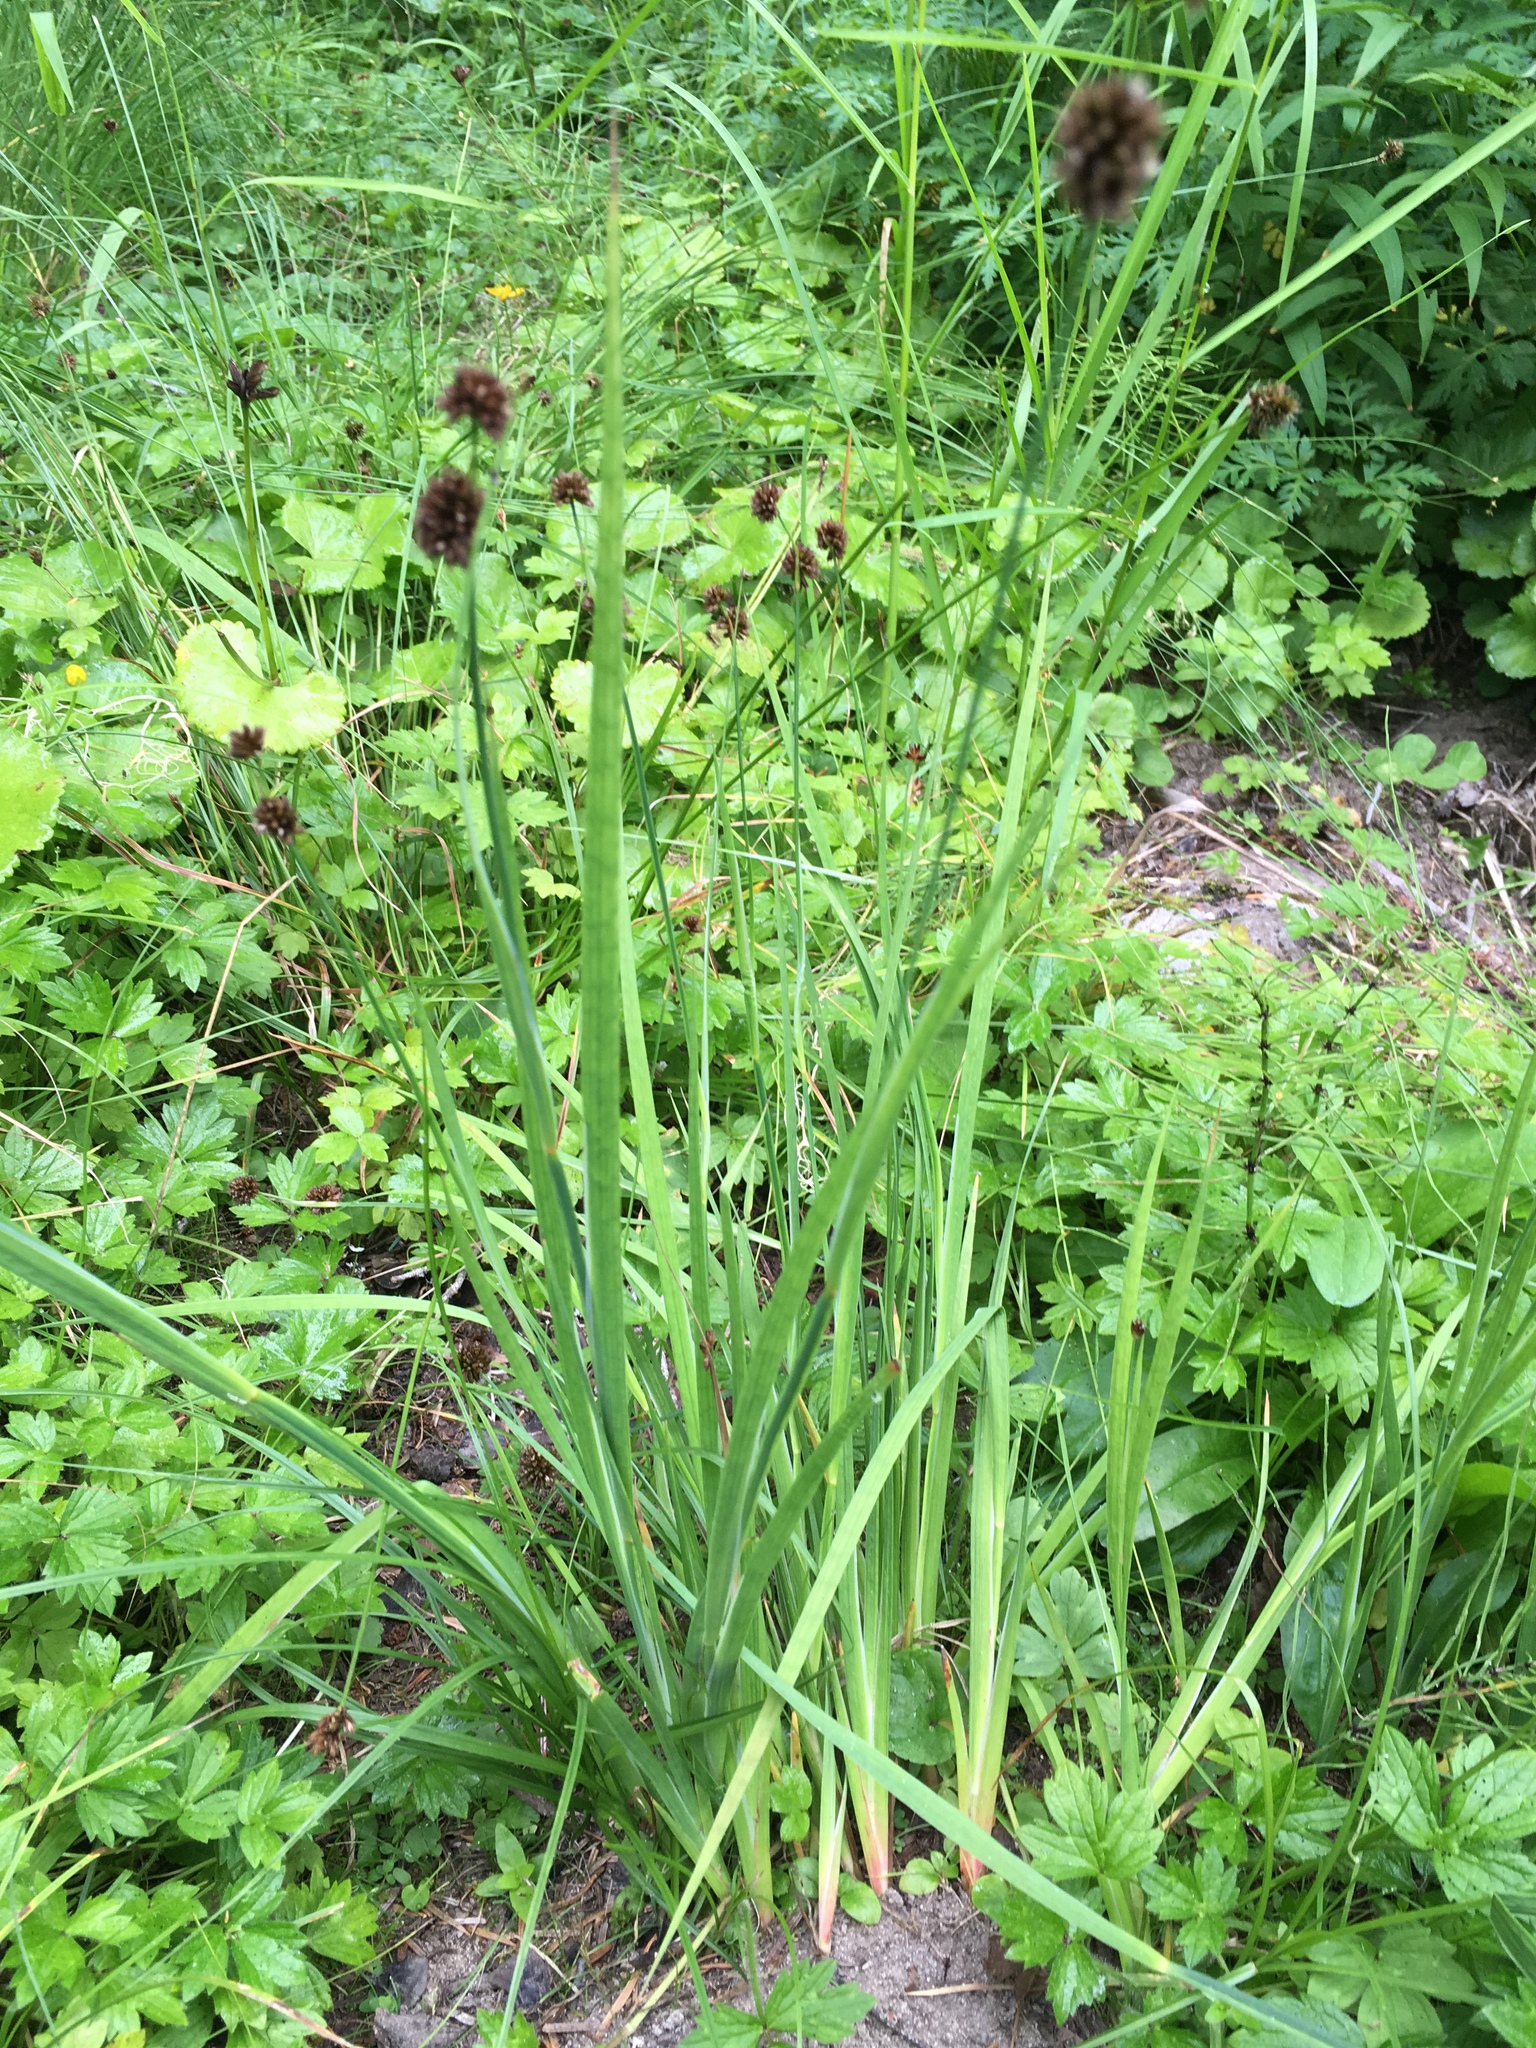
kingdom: Plantae
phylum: Tracheophyta
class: Liliopsida
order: Poales
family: Juncaceae
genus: Juncus
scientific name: Juncus ensifolius
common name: Sword-leaved rush
